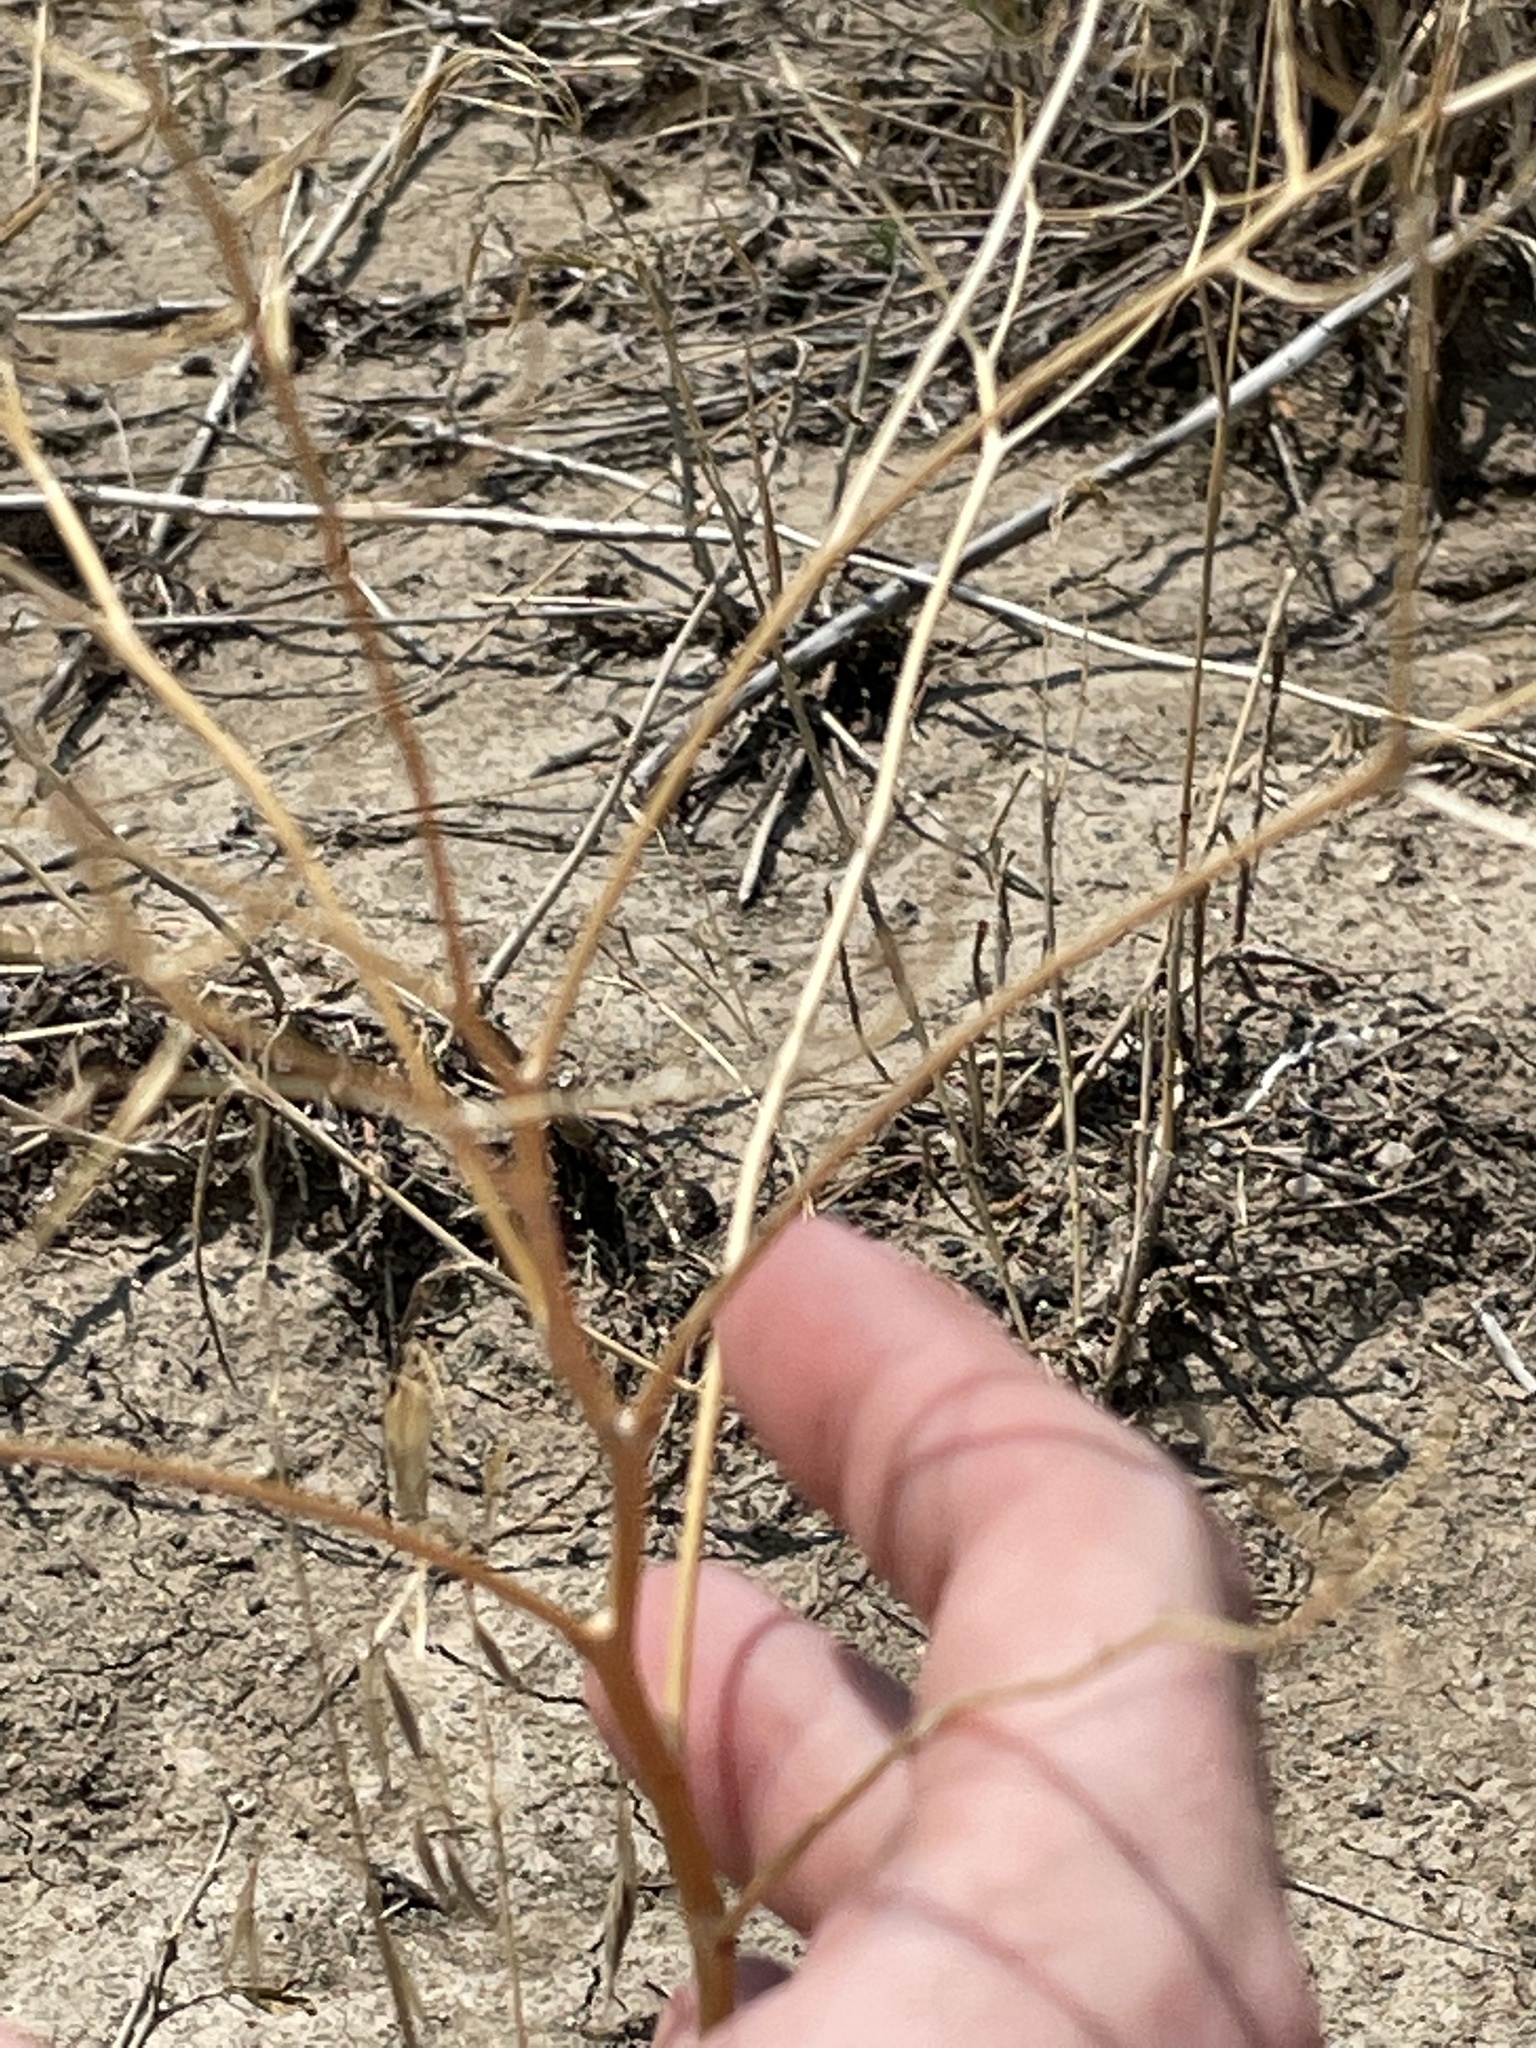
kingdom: Plantae
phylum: Tracheophyta
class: Magnoliopsida
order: Brassicales
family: Brassicaceae
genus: Sisymbrium
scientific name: Sisymbrium altissimum
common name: Tall rocket
